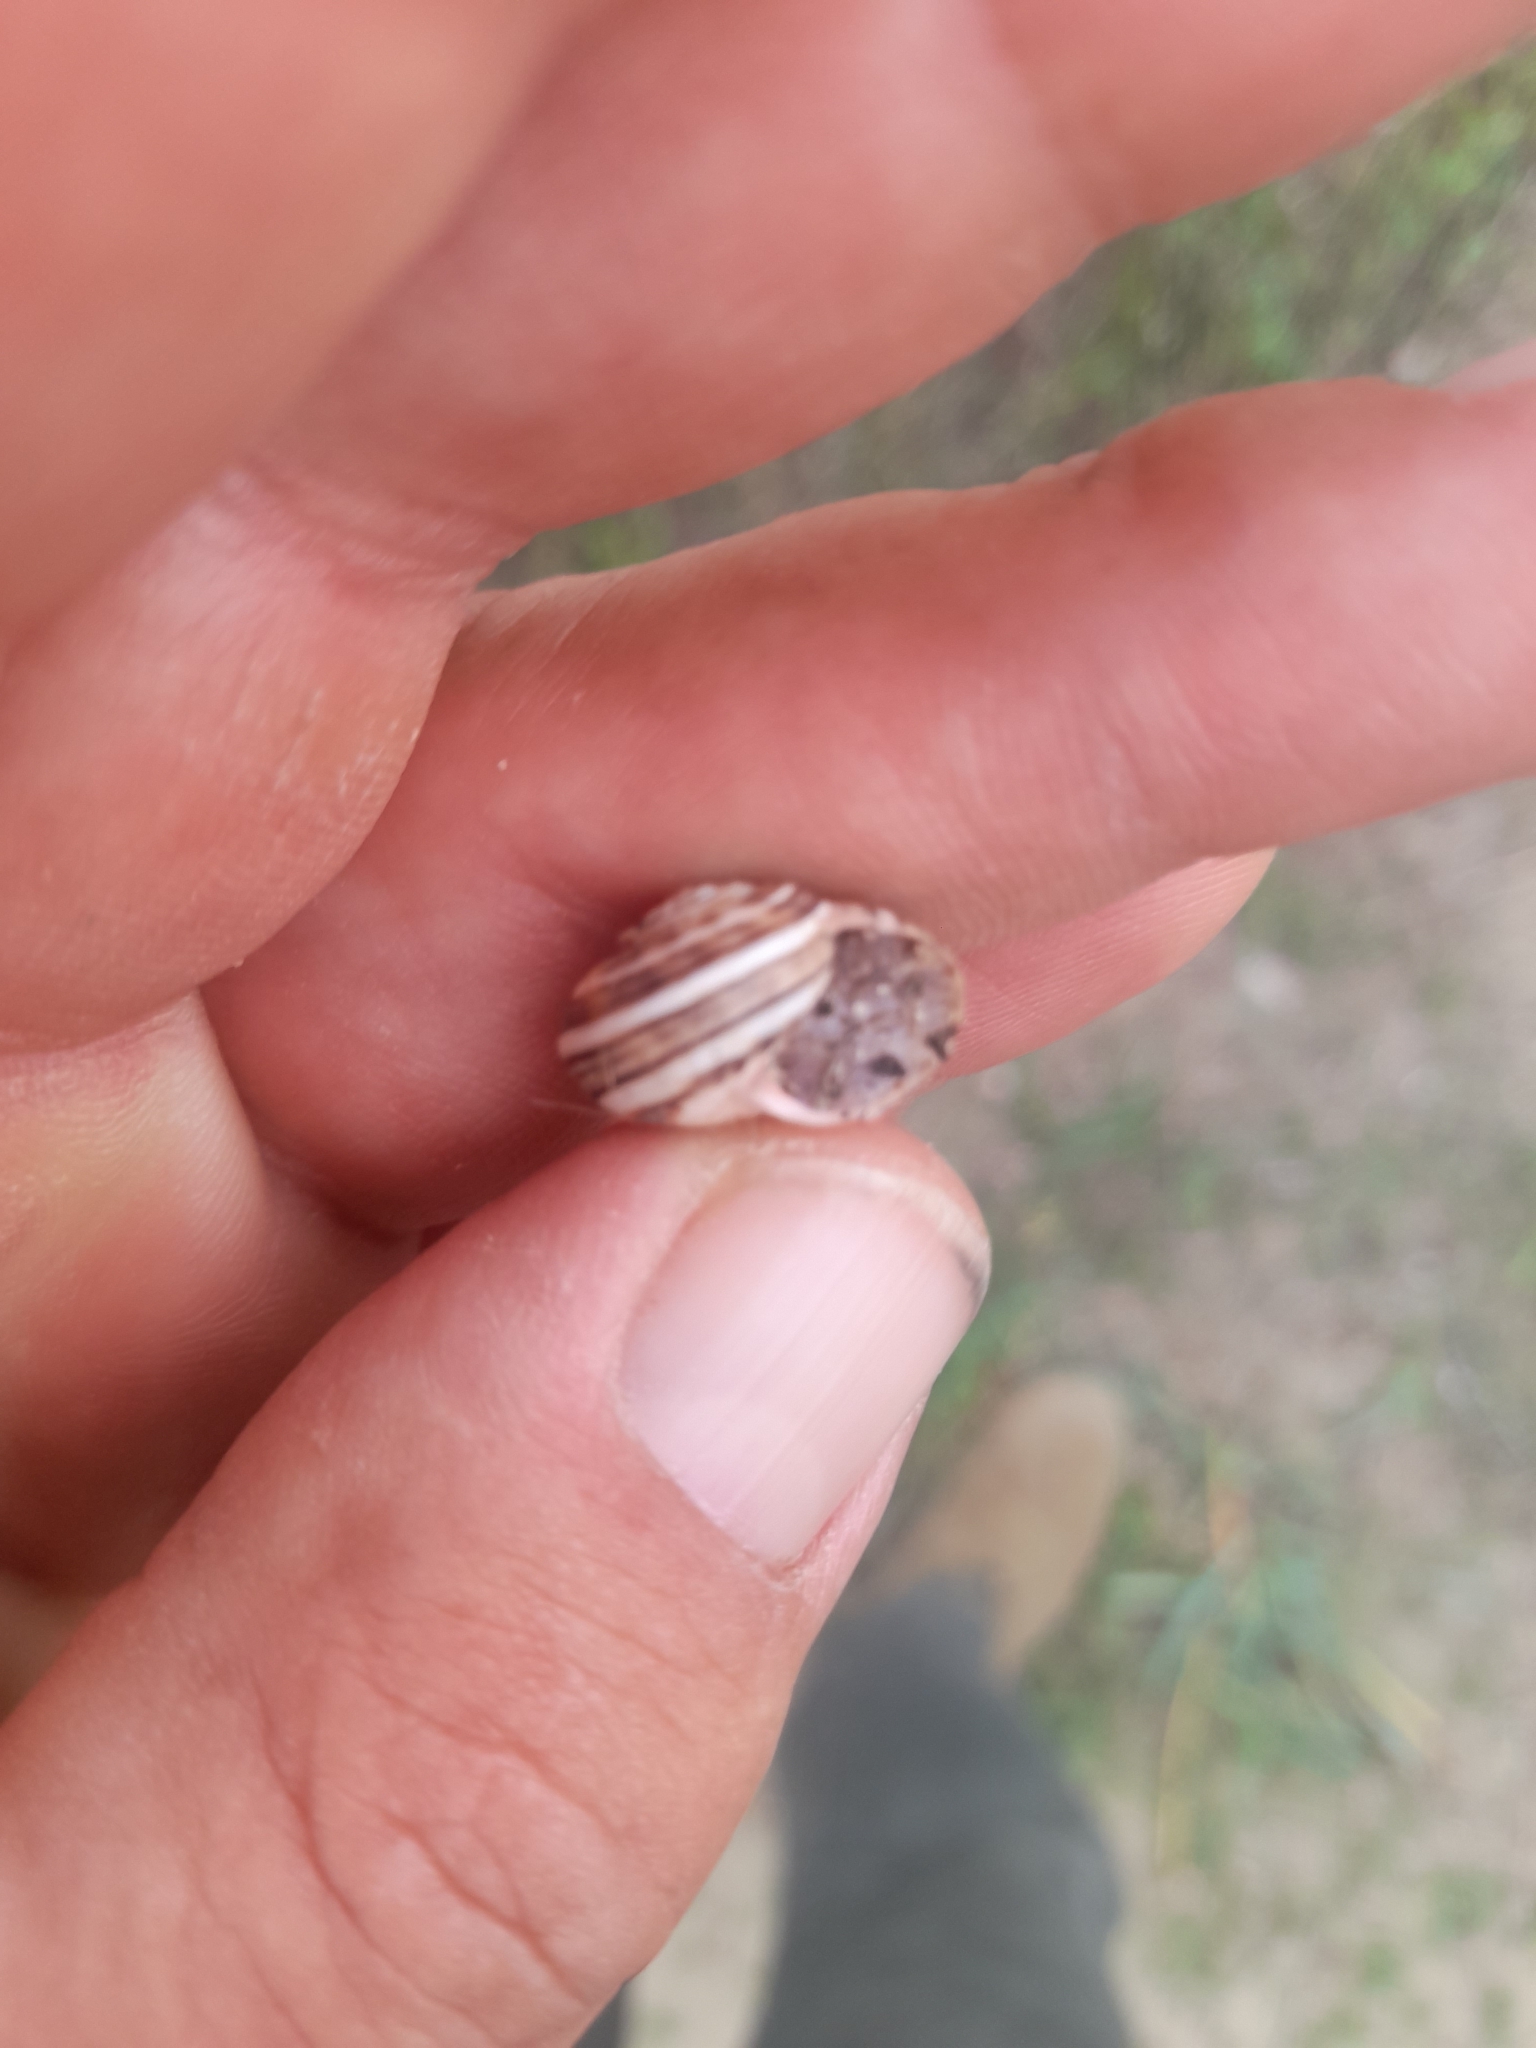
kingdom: Animalia
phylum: Mollusca
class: Gastropoda
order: Stylommatophora
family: Helicidae
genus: Theba
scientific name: Theba pisana
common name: White snail
